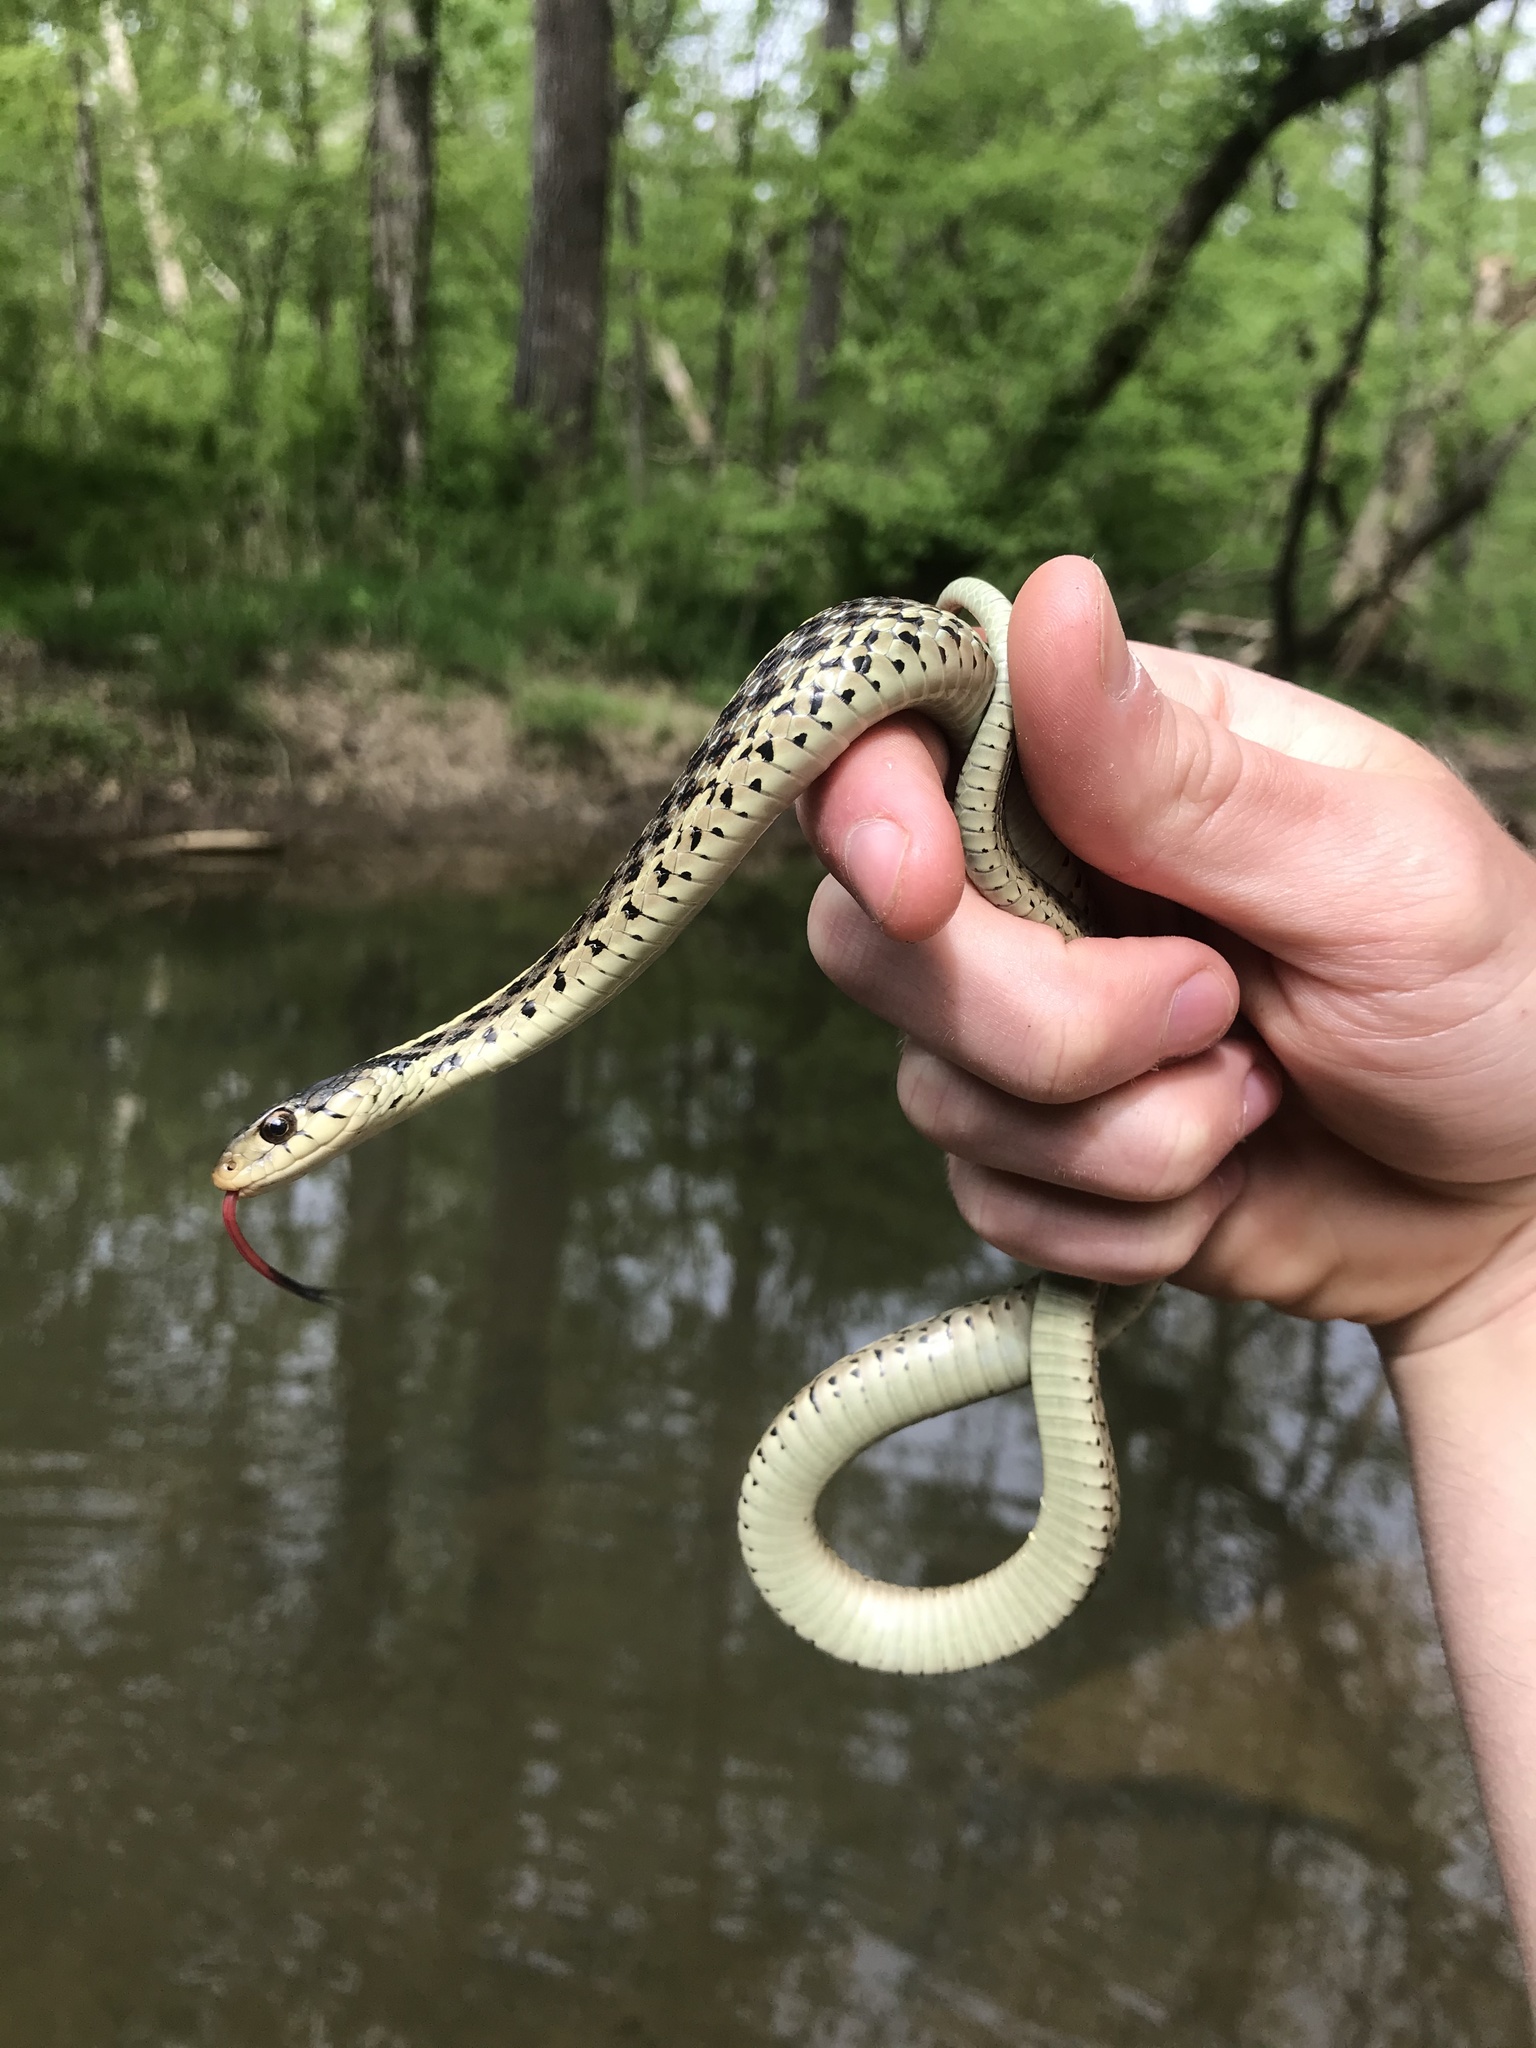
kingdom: Animalia
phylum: Chordata
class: Squamata
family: Colubridae
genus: Thamnophis
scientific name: Thamnophis sirtalis
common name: Common garter snake
